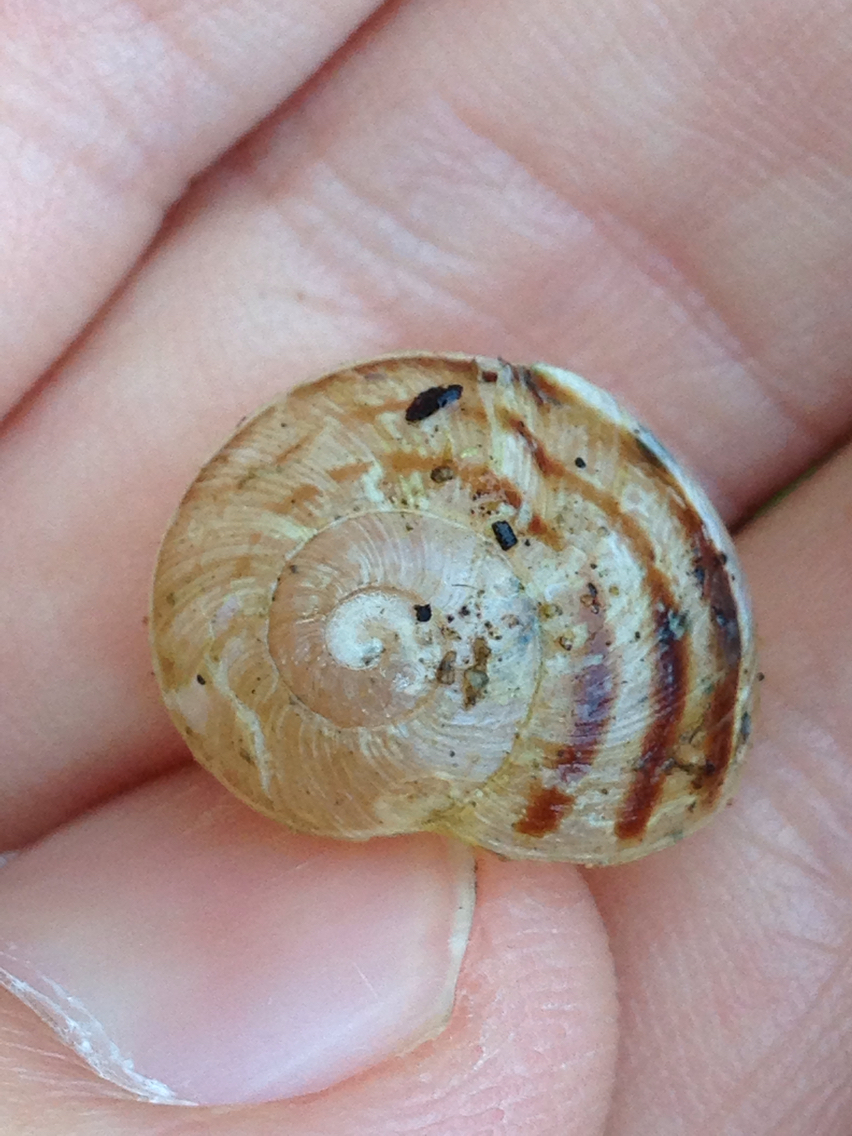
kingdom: Animalia
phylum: Mollusca
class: Gastropoda
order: Stylommatophora
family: Helicidae
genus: Cornu
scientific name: Cornu aspersum
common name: Brown garden snail
